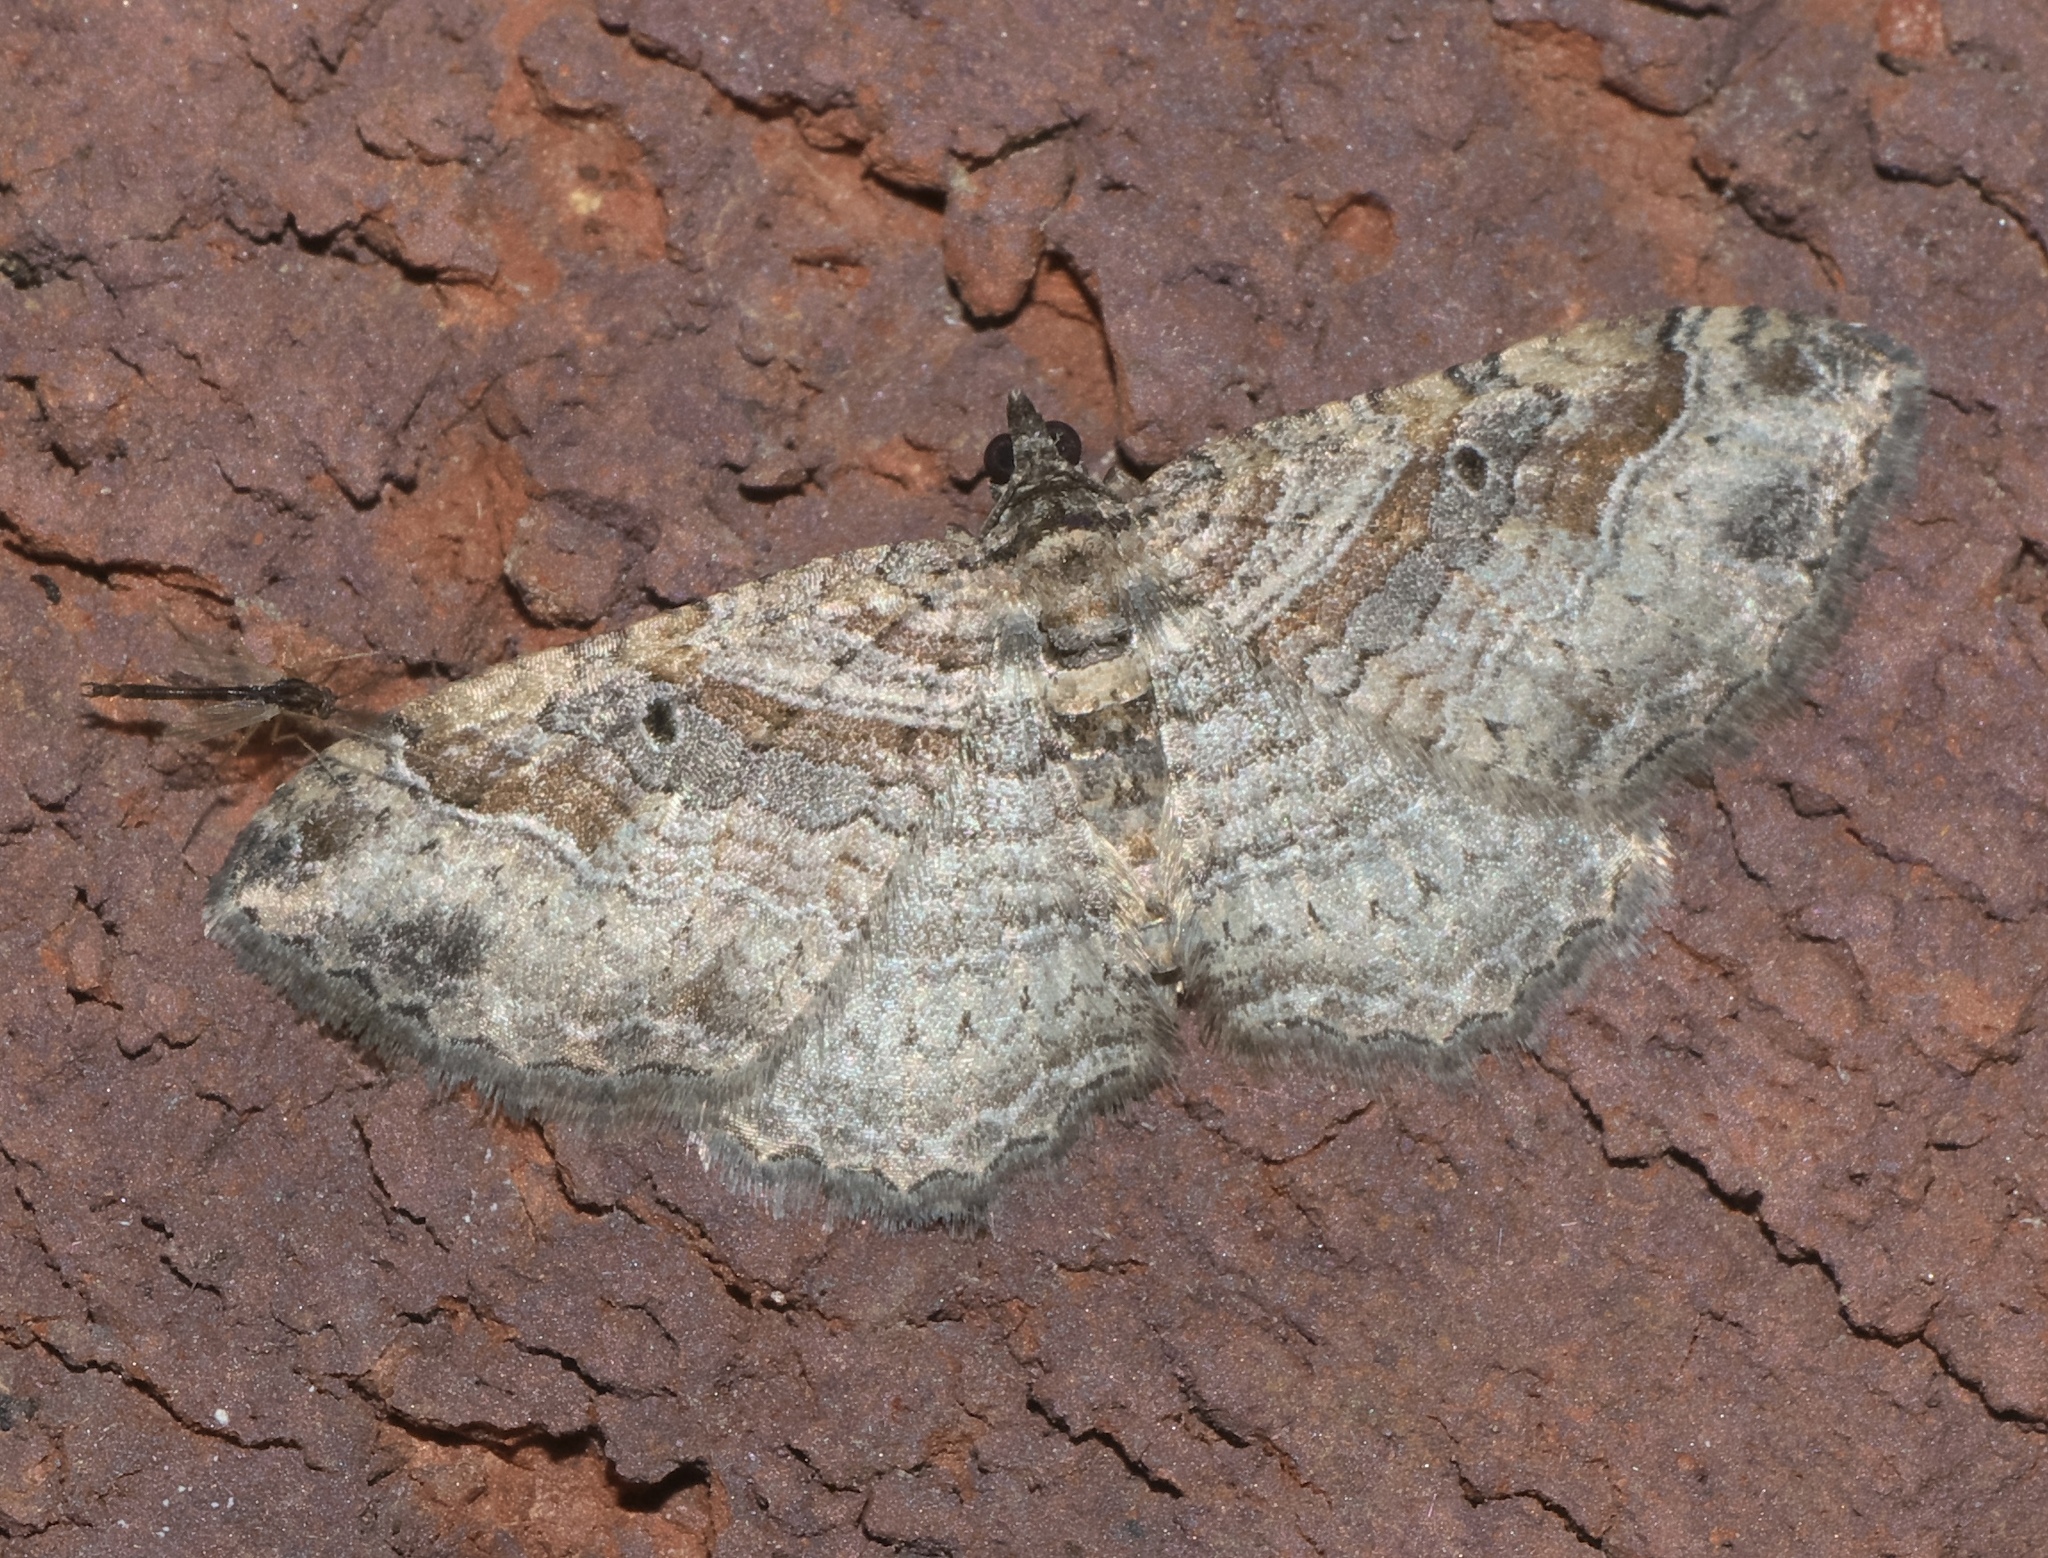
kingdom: Animalia
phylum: Arthropoda
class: Insecta
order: Lepidoptera
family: Geometridae
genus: Costaconvexa
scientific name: Costaconvexa centrostrigaria
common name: Bent-line carpet
